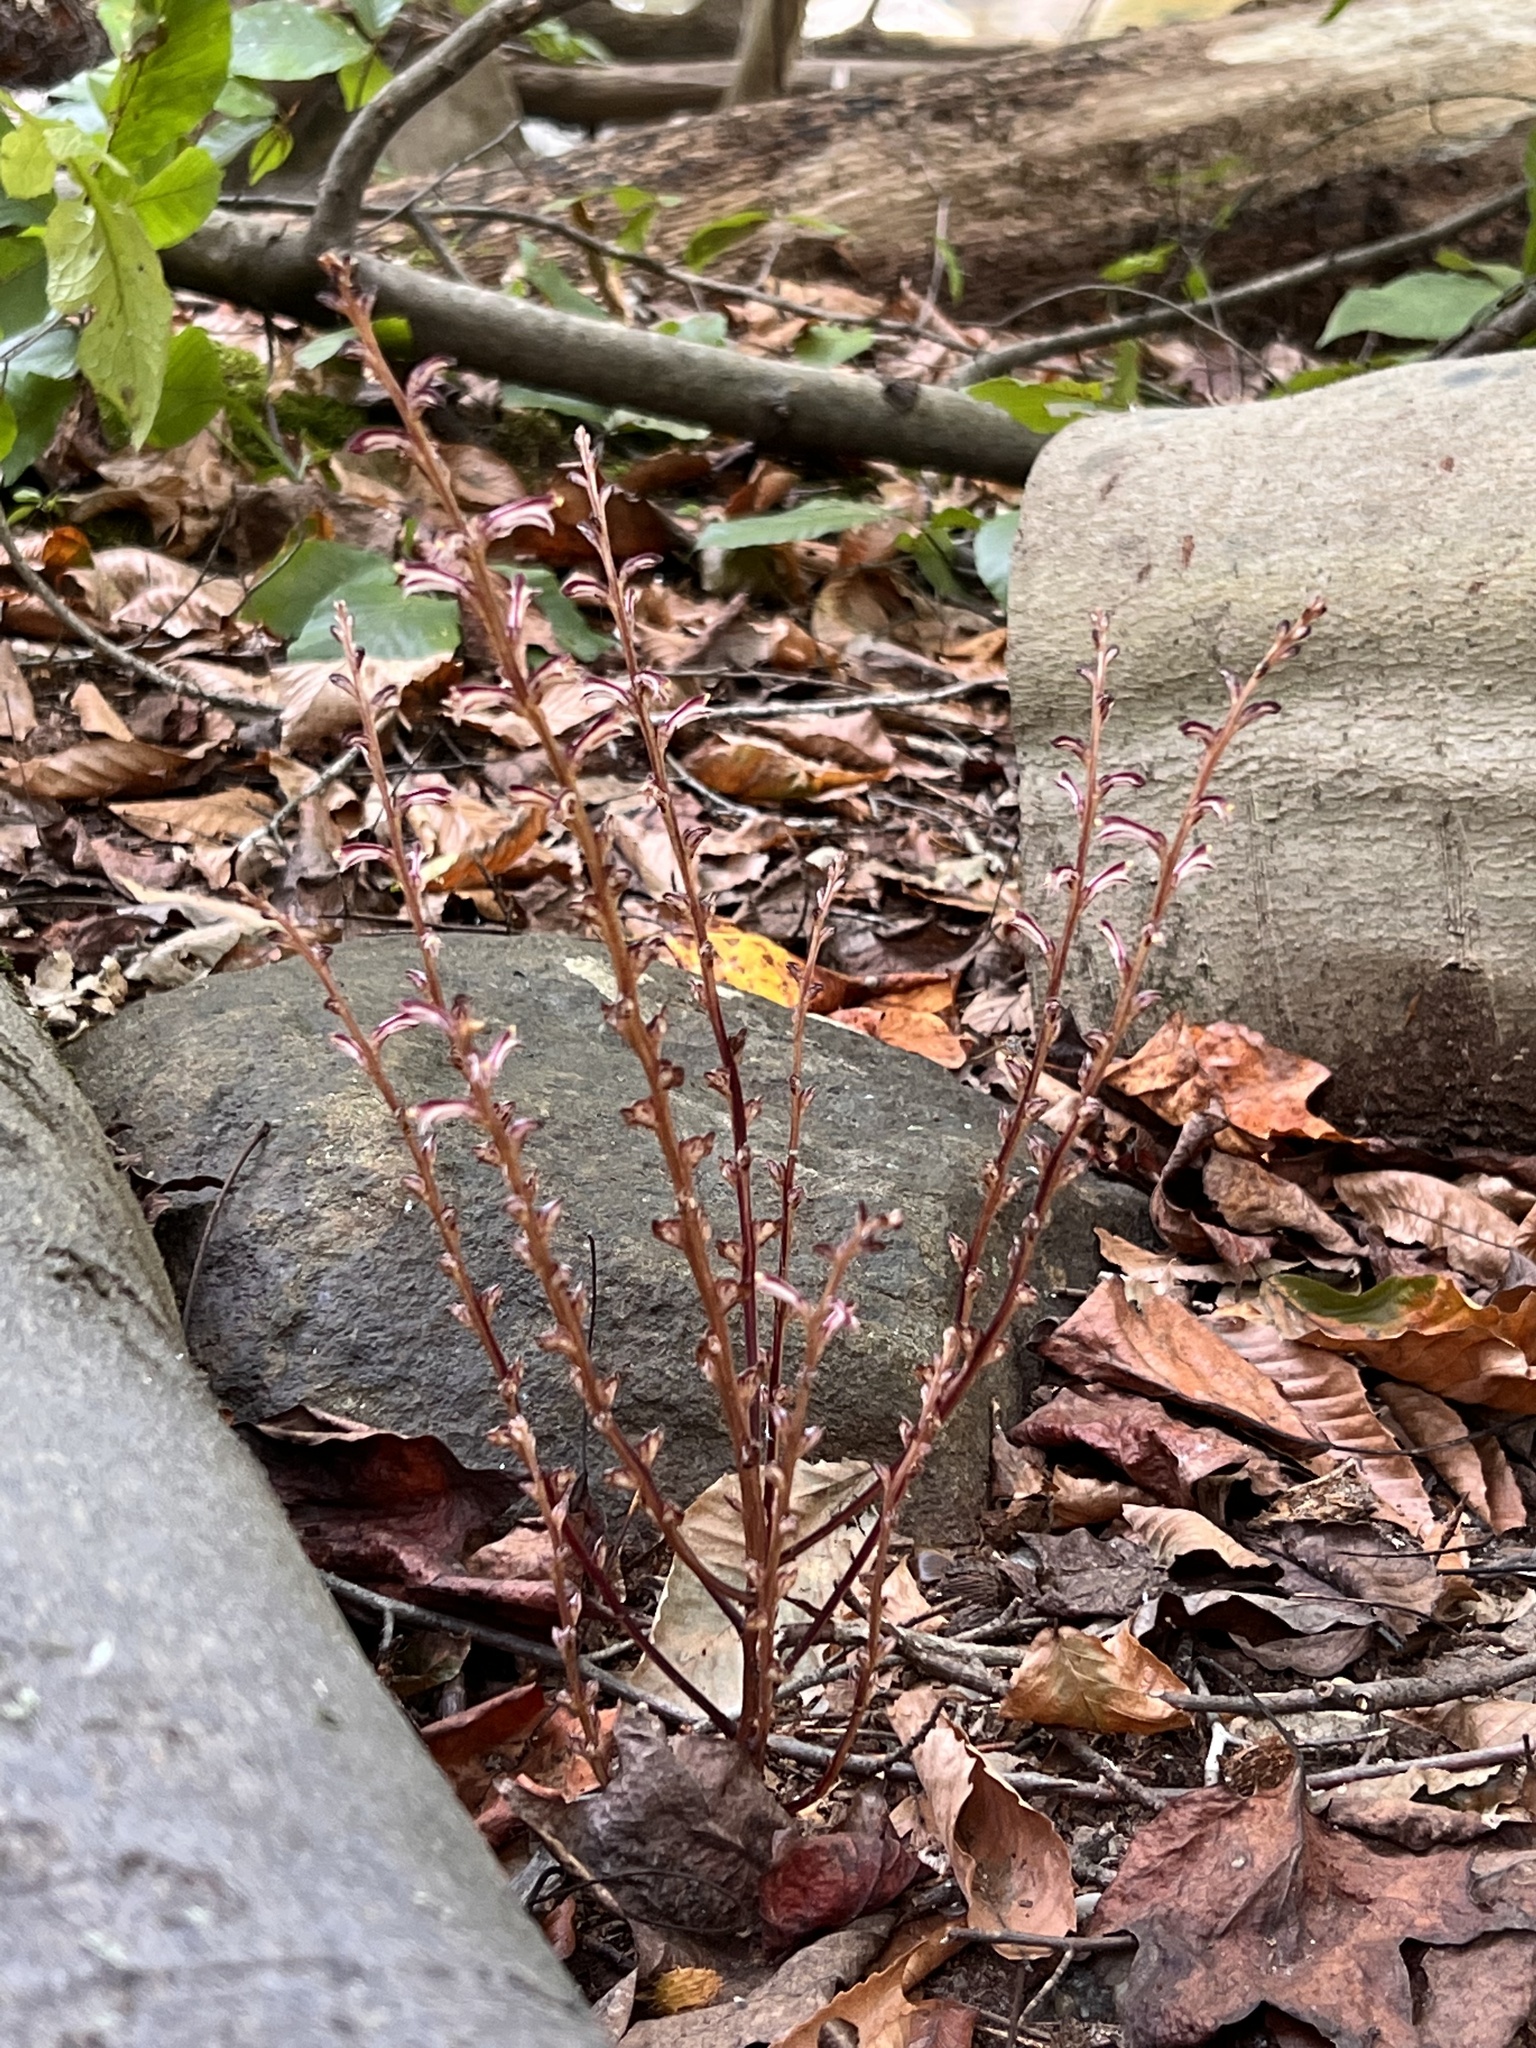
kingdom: Plantae
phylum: Tracheophyta
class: Magnoliopsida
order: Lamiales
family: Orobanchaceae
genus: Epifagus
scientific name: Epifagus virginiana
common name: Beechdrops
